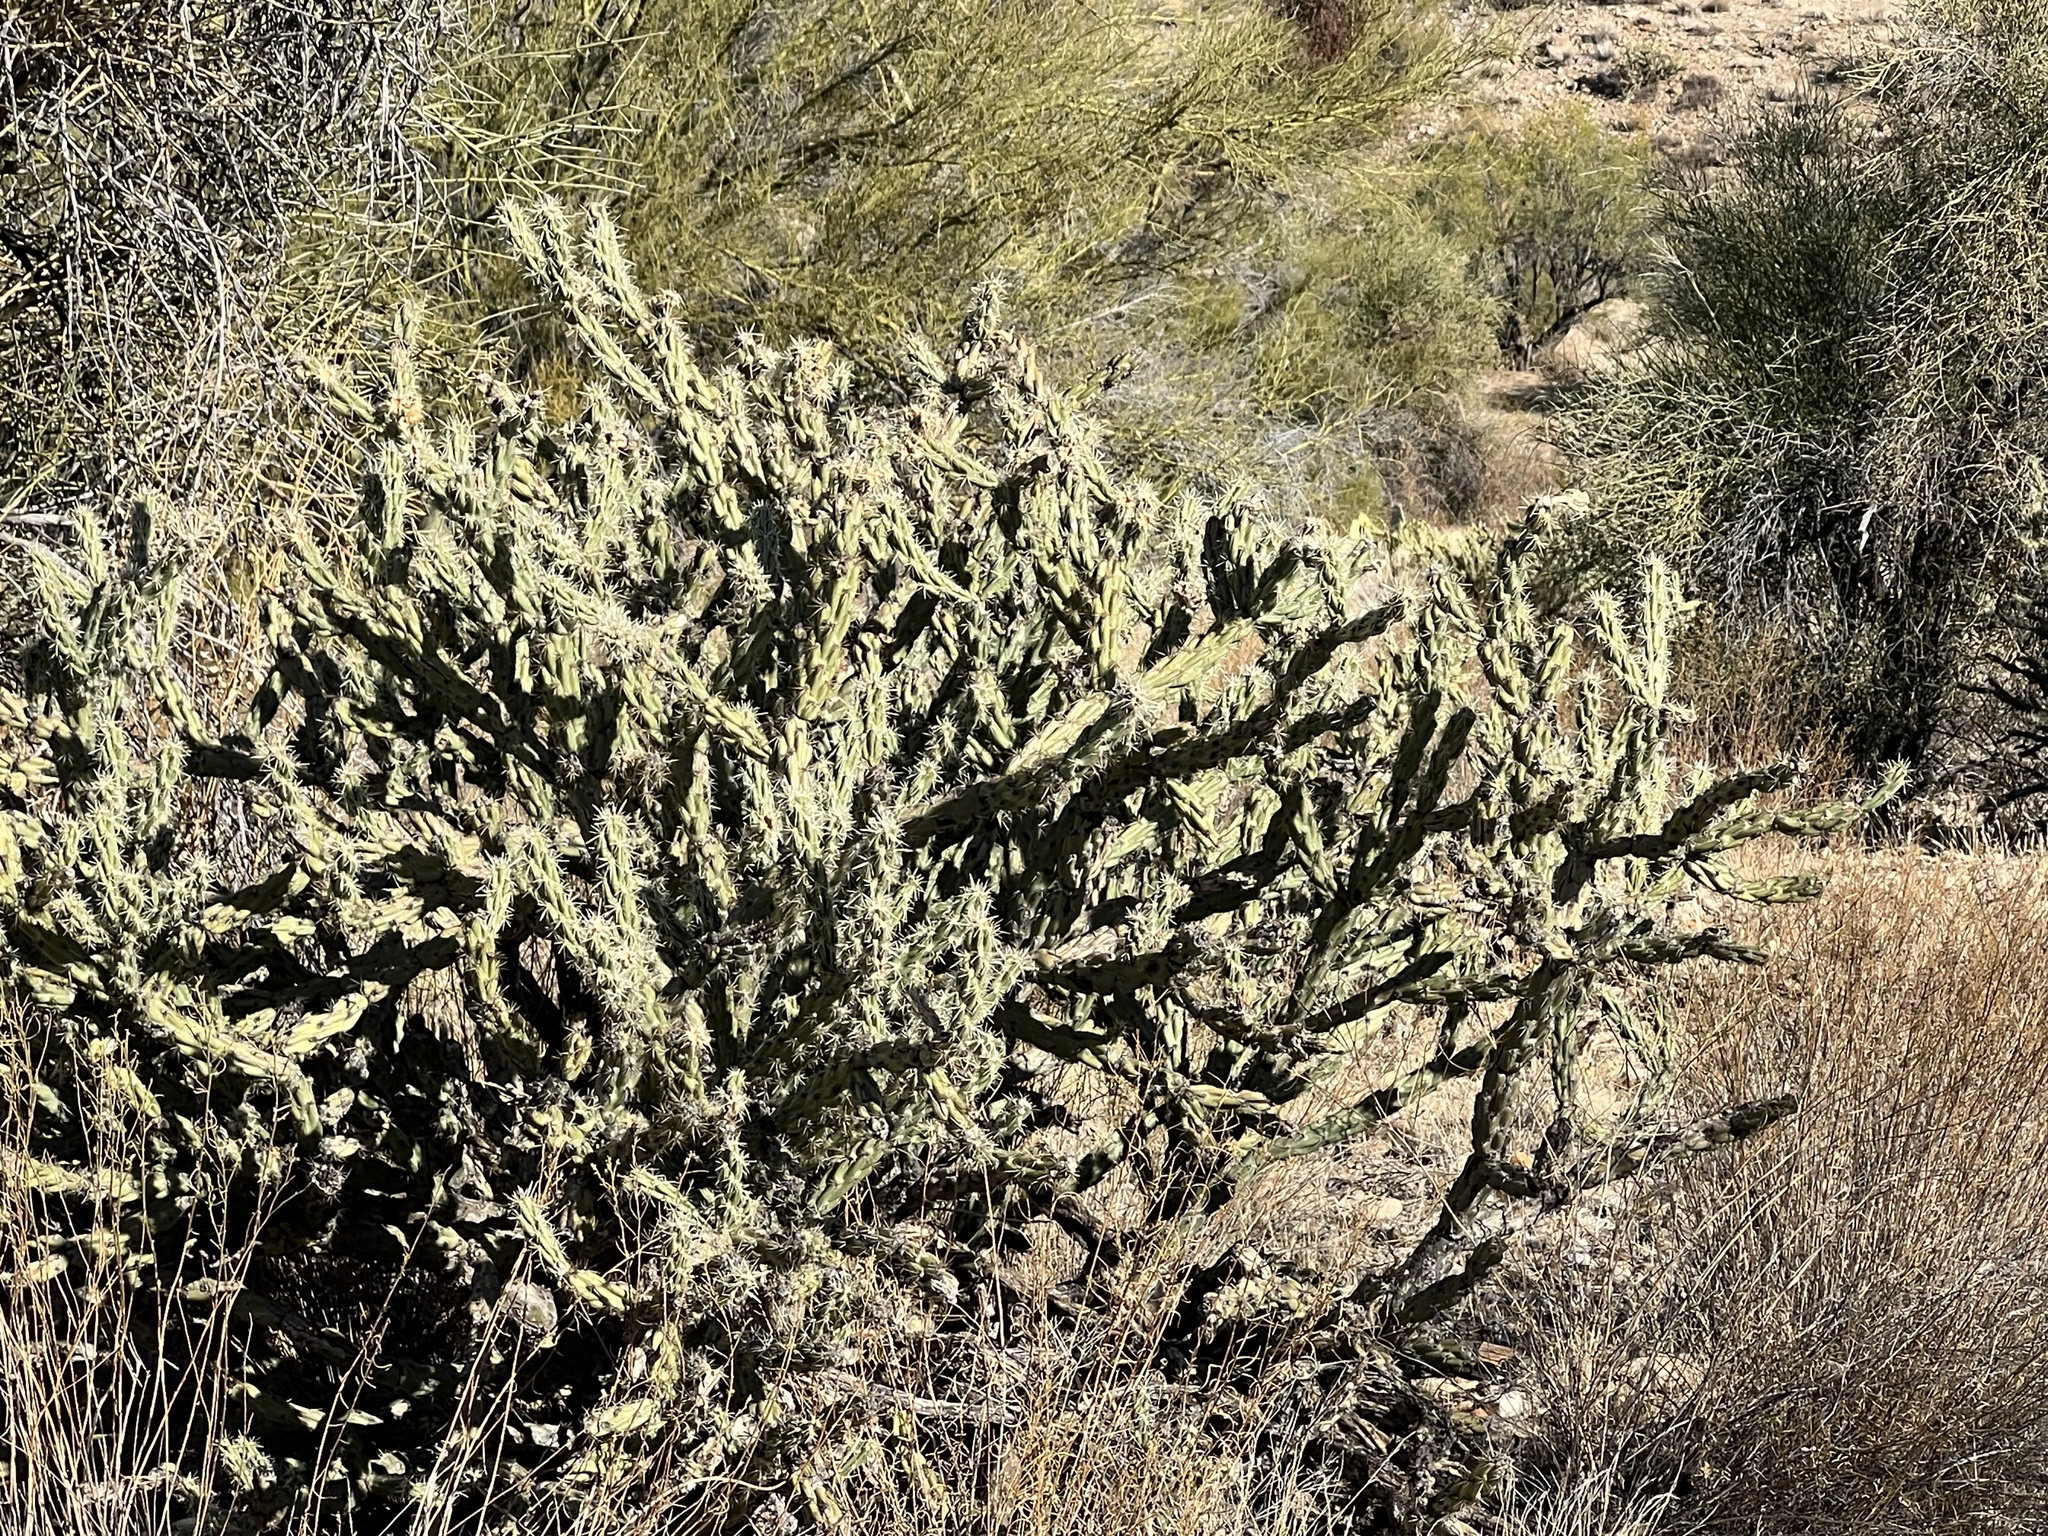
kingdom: Plantae
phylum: Tracheophyta
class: Magnoliopsida
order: Caryophyllales
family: Cactaceae
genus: Cylindropuntia
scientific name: Cylindropuntia acanthocarpa
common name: Buckhorn cholla
